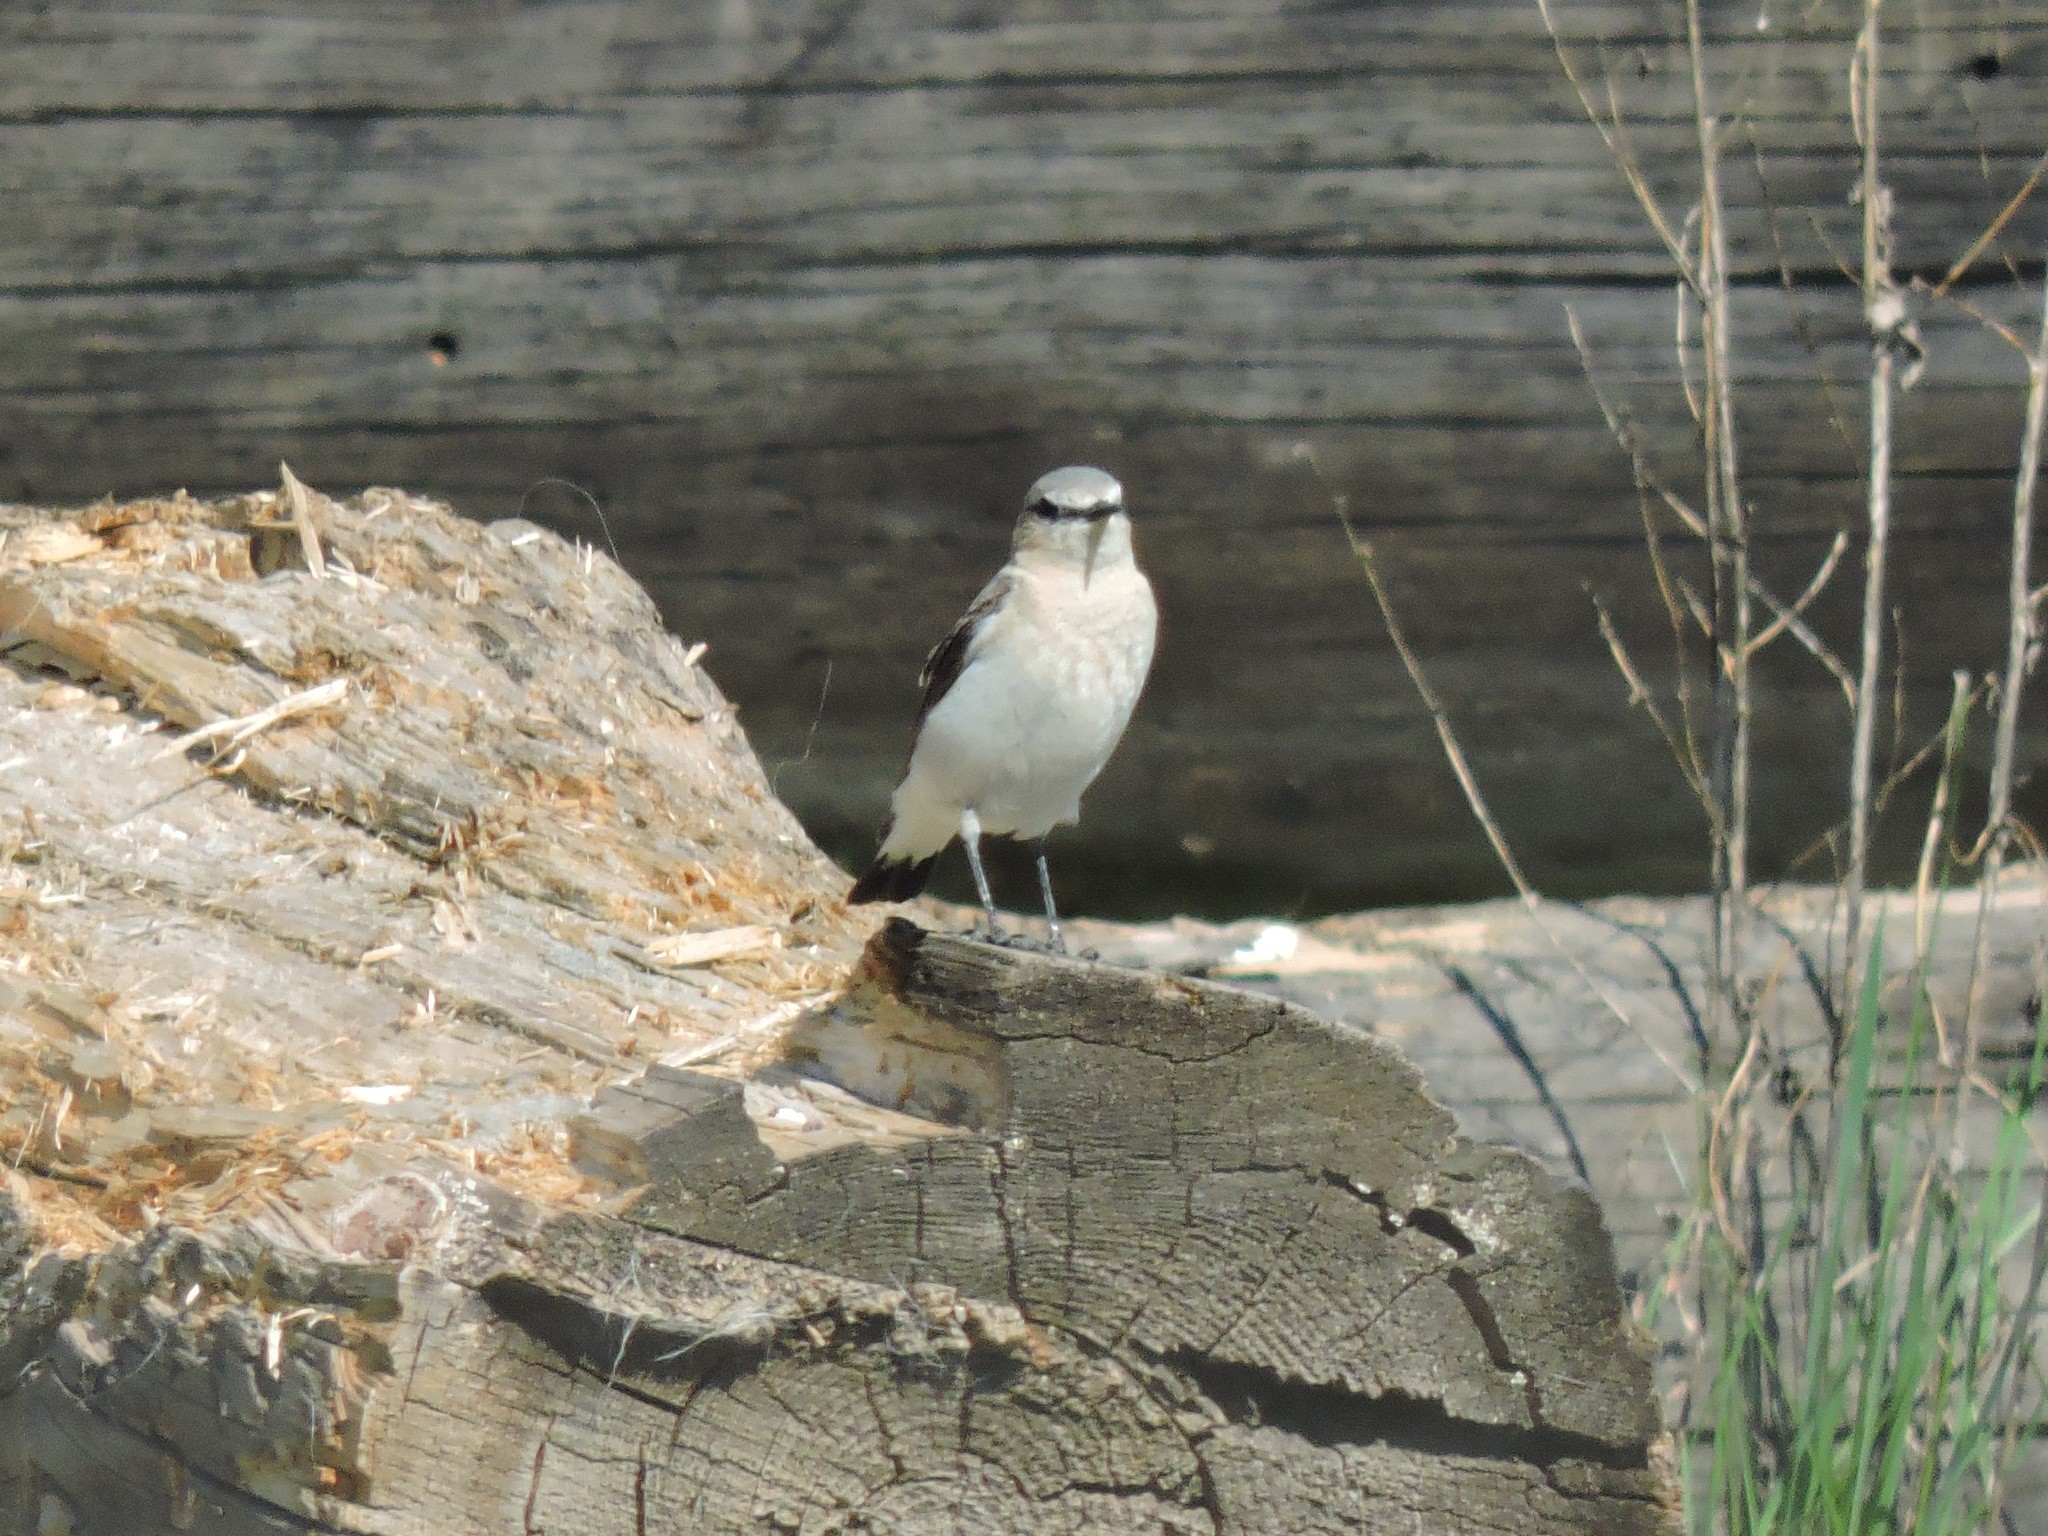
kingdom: Animalia
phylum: Chordata
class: Aves
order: Passeriformes
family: Muscicapidae
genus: Oenanthe
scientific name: Oenanthe oenanthe
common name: Northern wheatear
